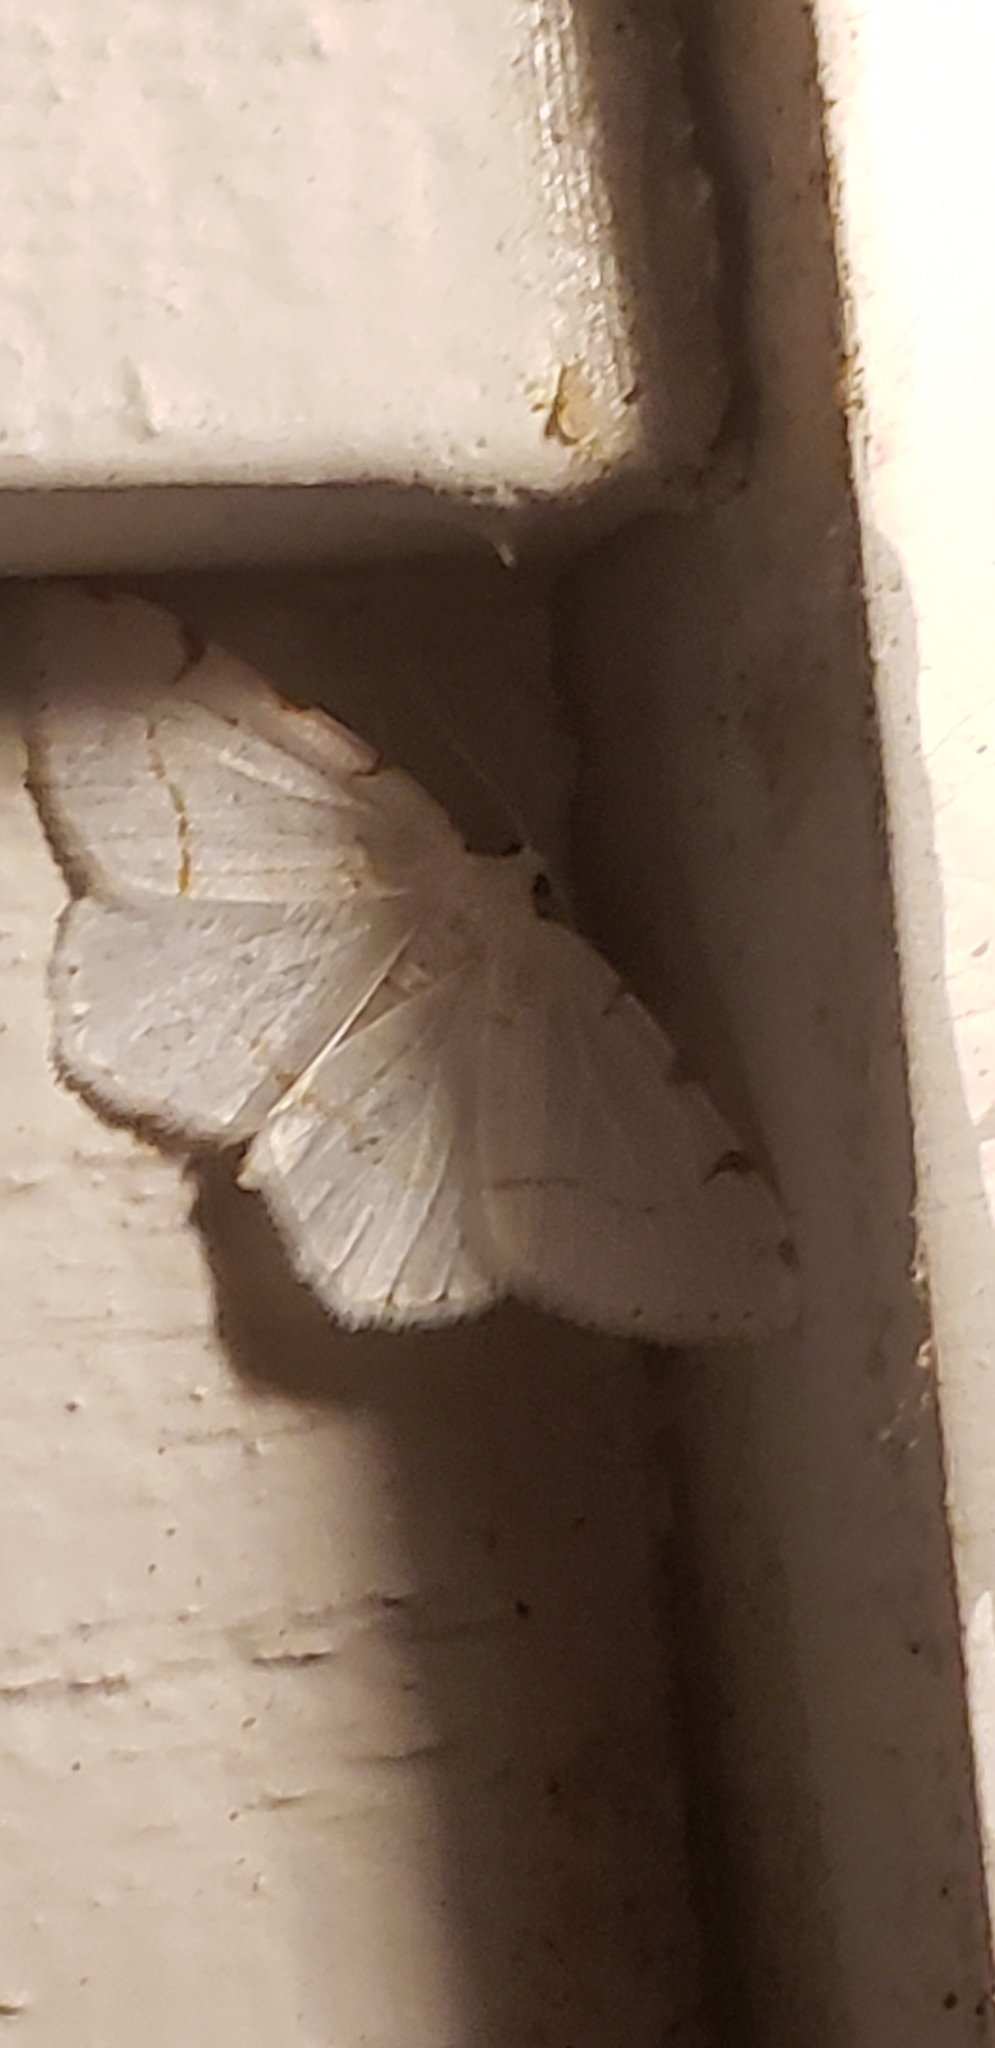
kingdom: Animalia
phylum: Arthropoda
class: Insecta
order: Lepidoptera
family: Geometridae
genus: Macaria
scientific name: Macaria pustularia
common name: Lesser maple spanworm moth
